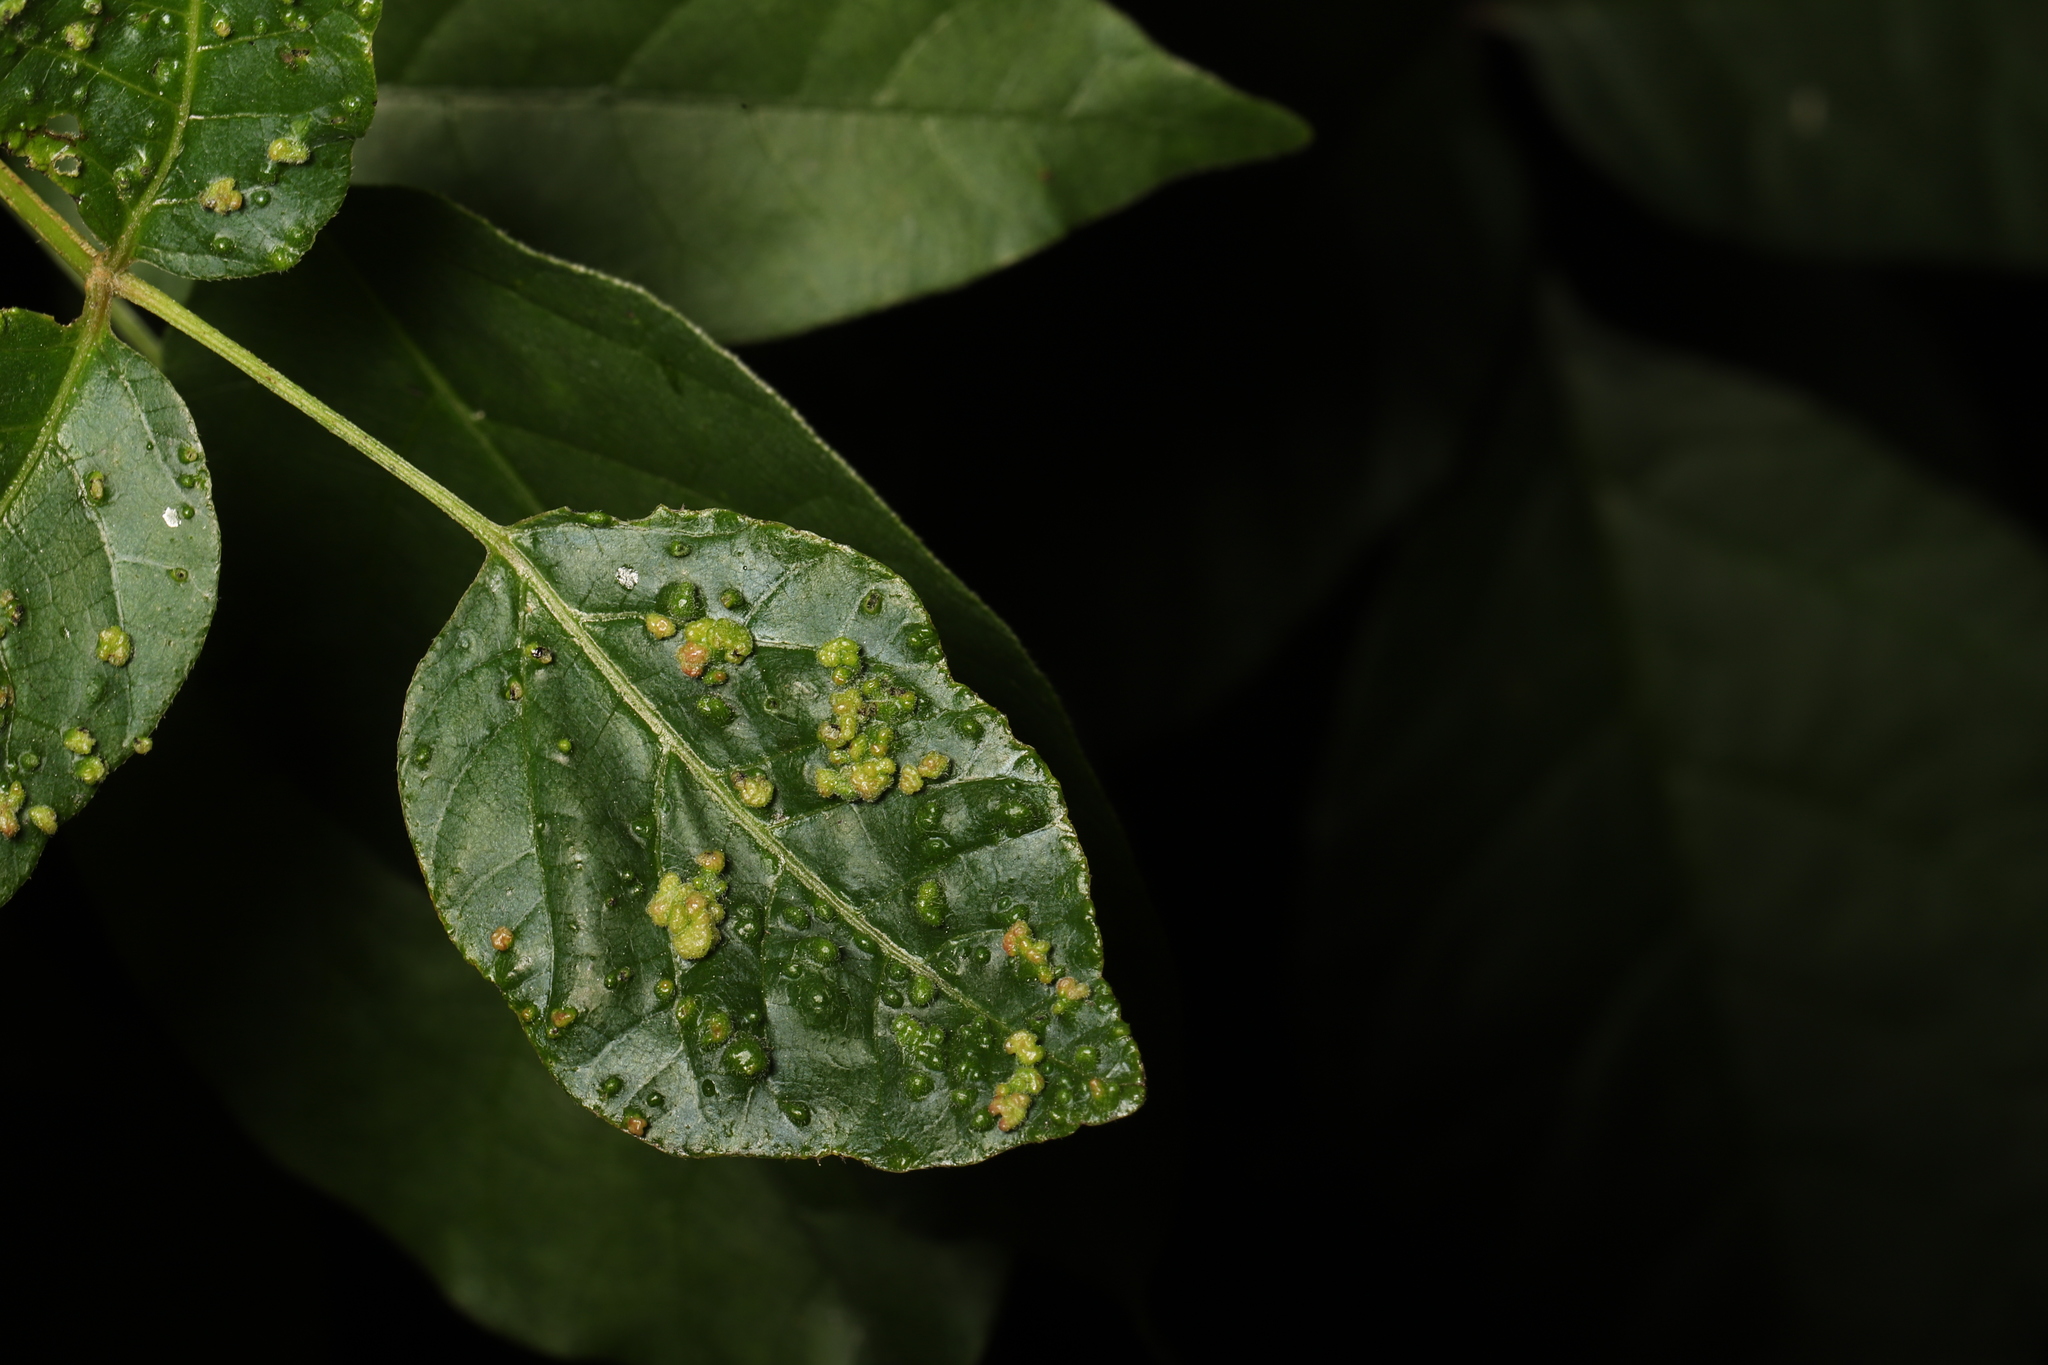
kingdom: Animalia
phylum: Arthropoda
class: Arachnida
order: Trombidiformes
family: Eriophyidae
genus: Aculops
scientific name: Aculops
